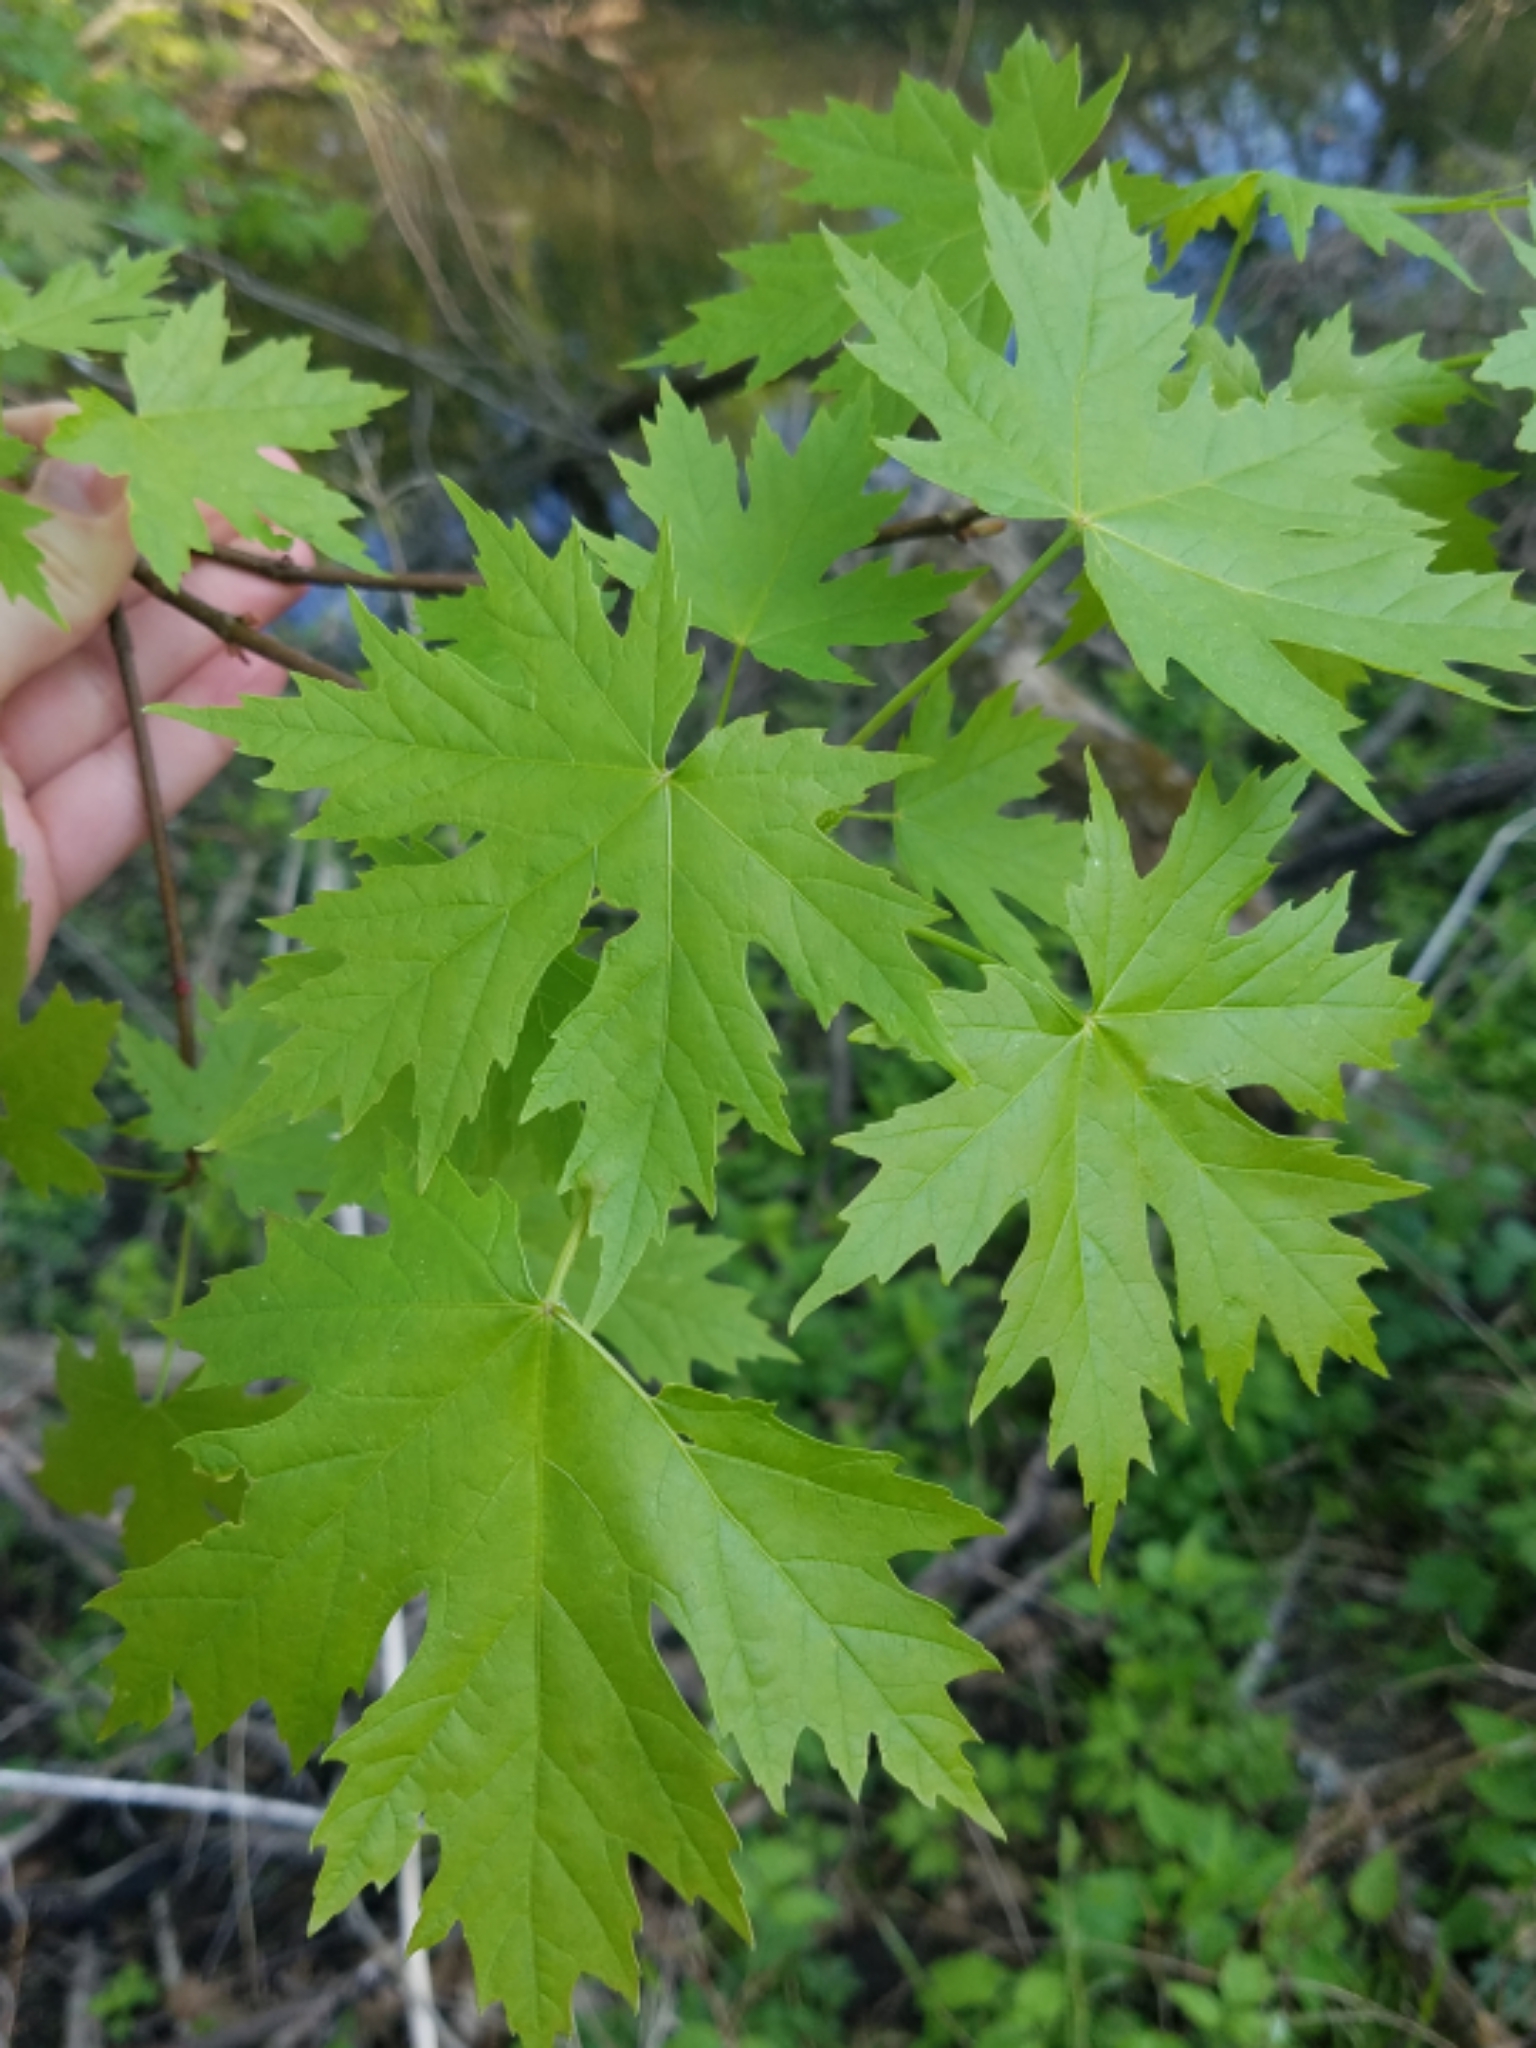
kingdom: Plantae
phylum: Tracheophyta
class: Magnoliopsida
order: Sapindales
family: Sapindaceae
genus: Acer
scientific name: Acer saccharinum
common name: Silver maple
